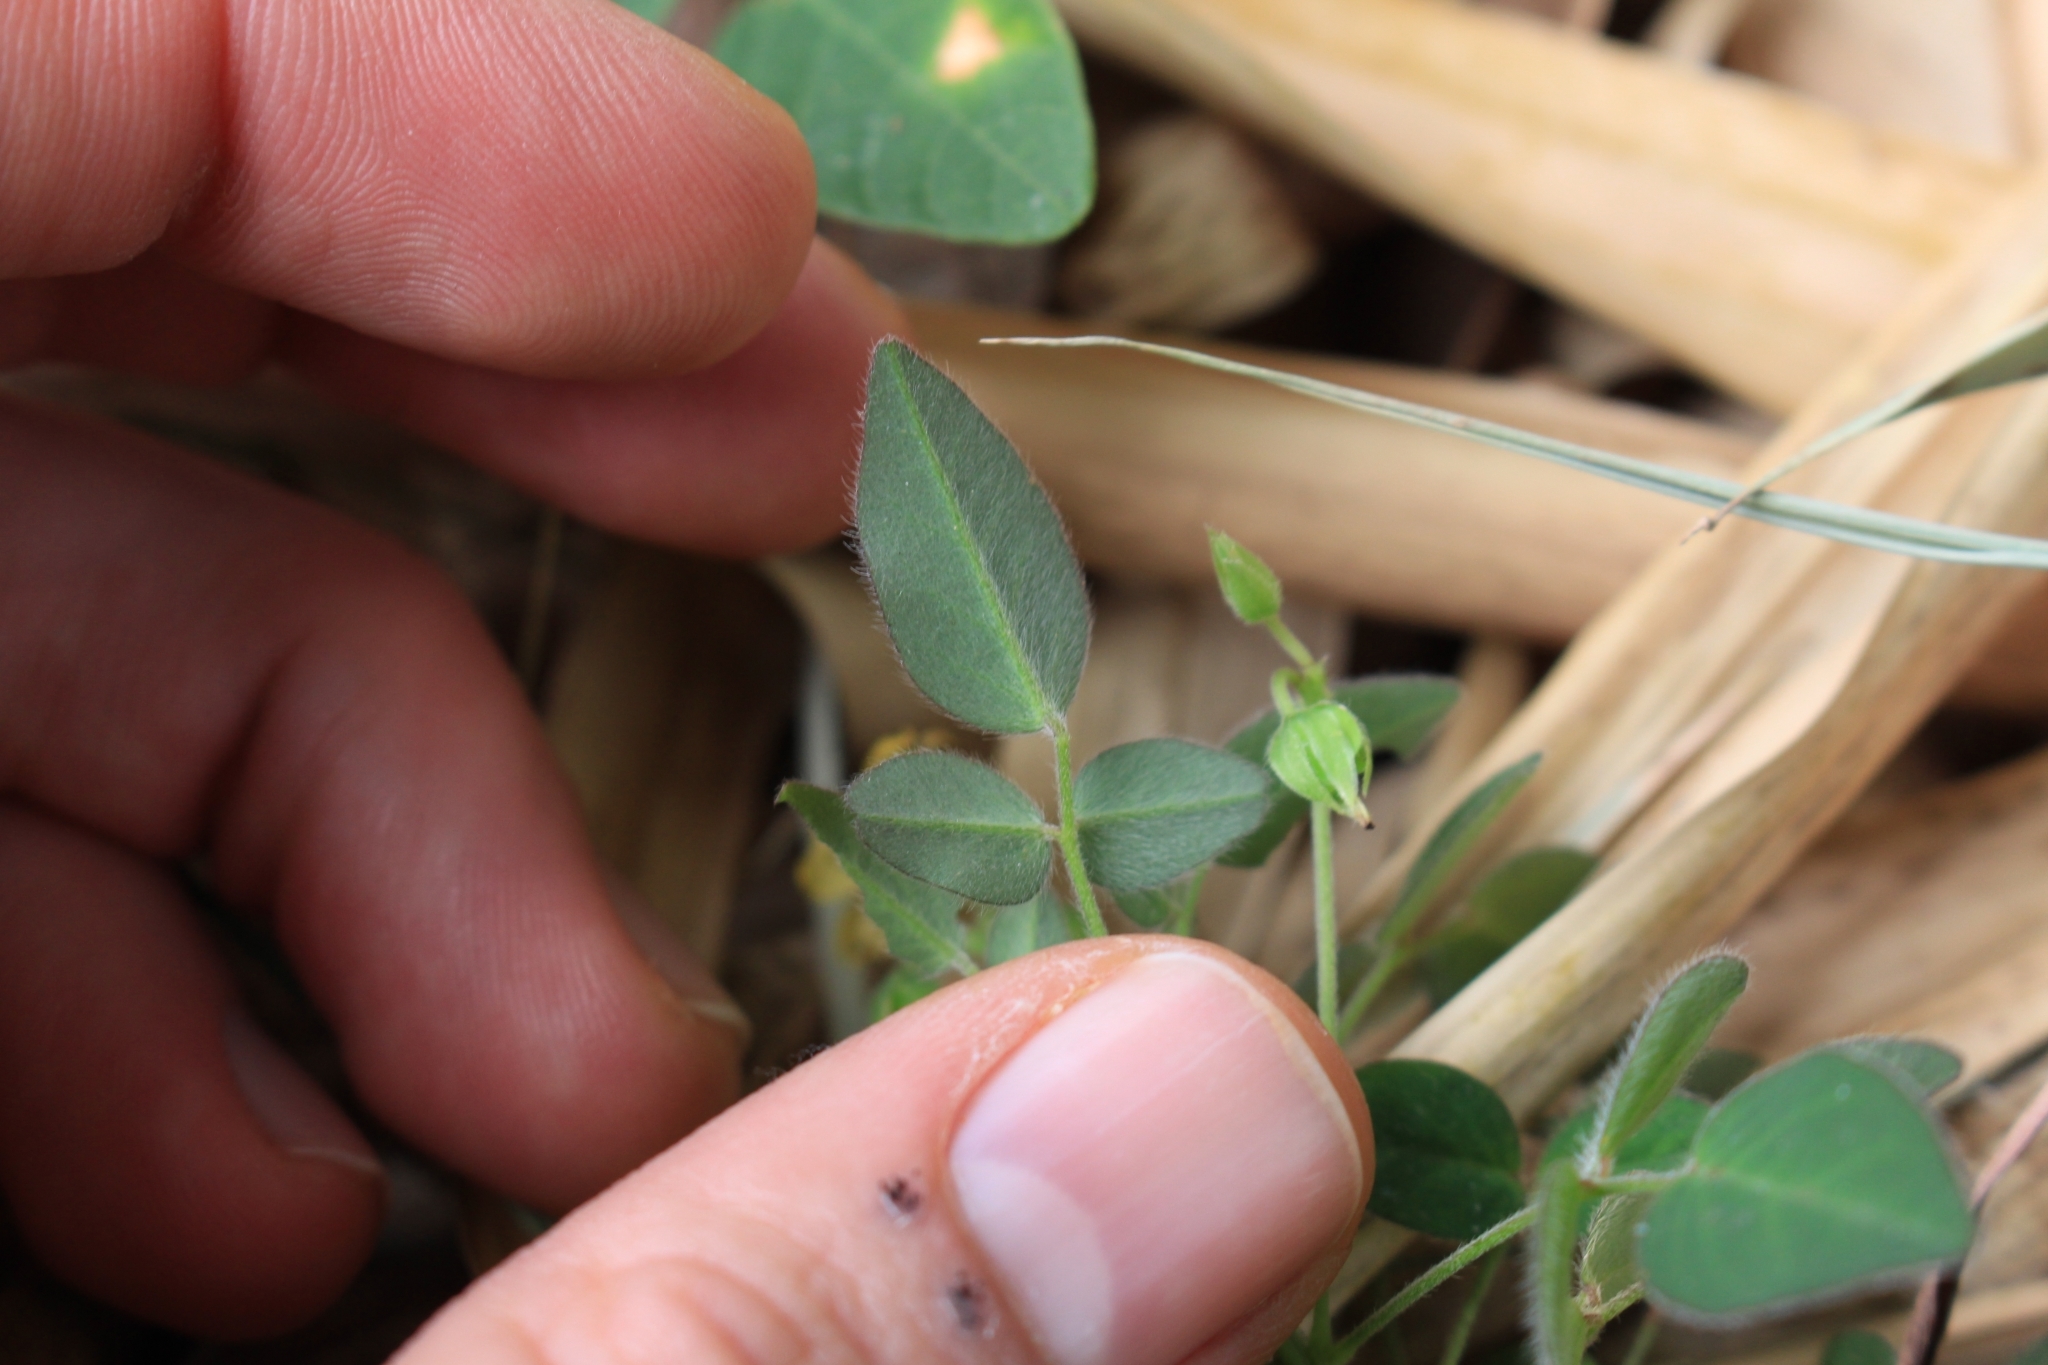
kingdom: Plantae
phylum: Tracheophyta
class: Magnoliopsida
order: Oxalidales
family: Oxalidaceae
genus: Oxalis
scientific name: Oxalis frutescens
